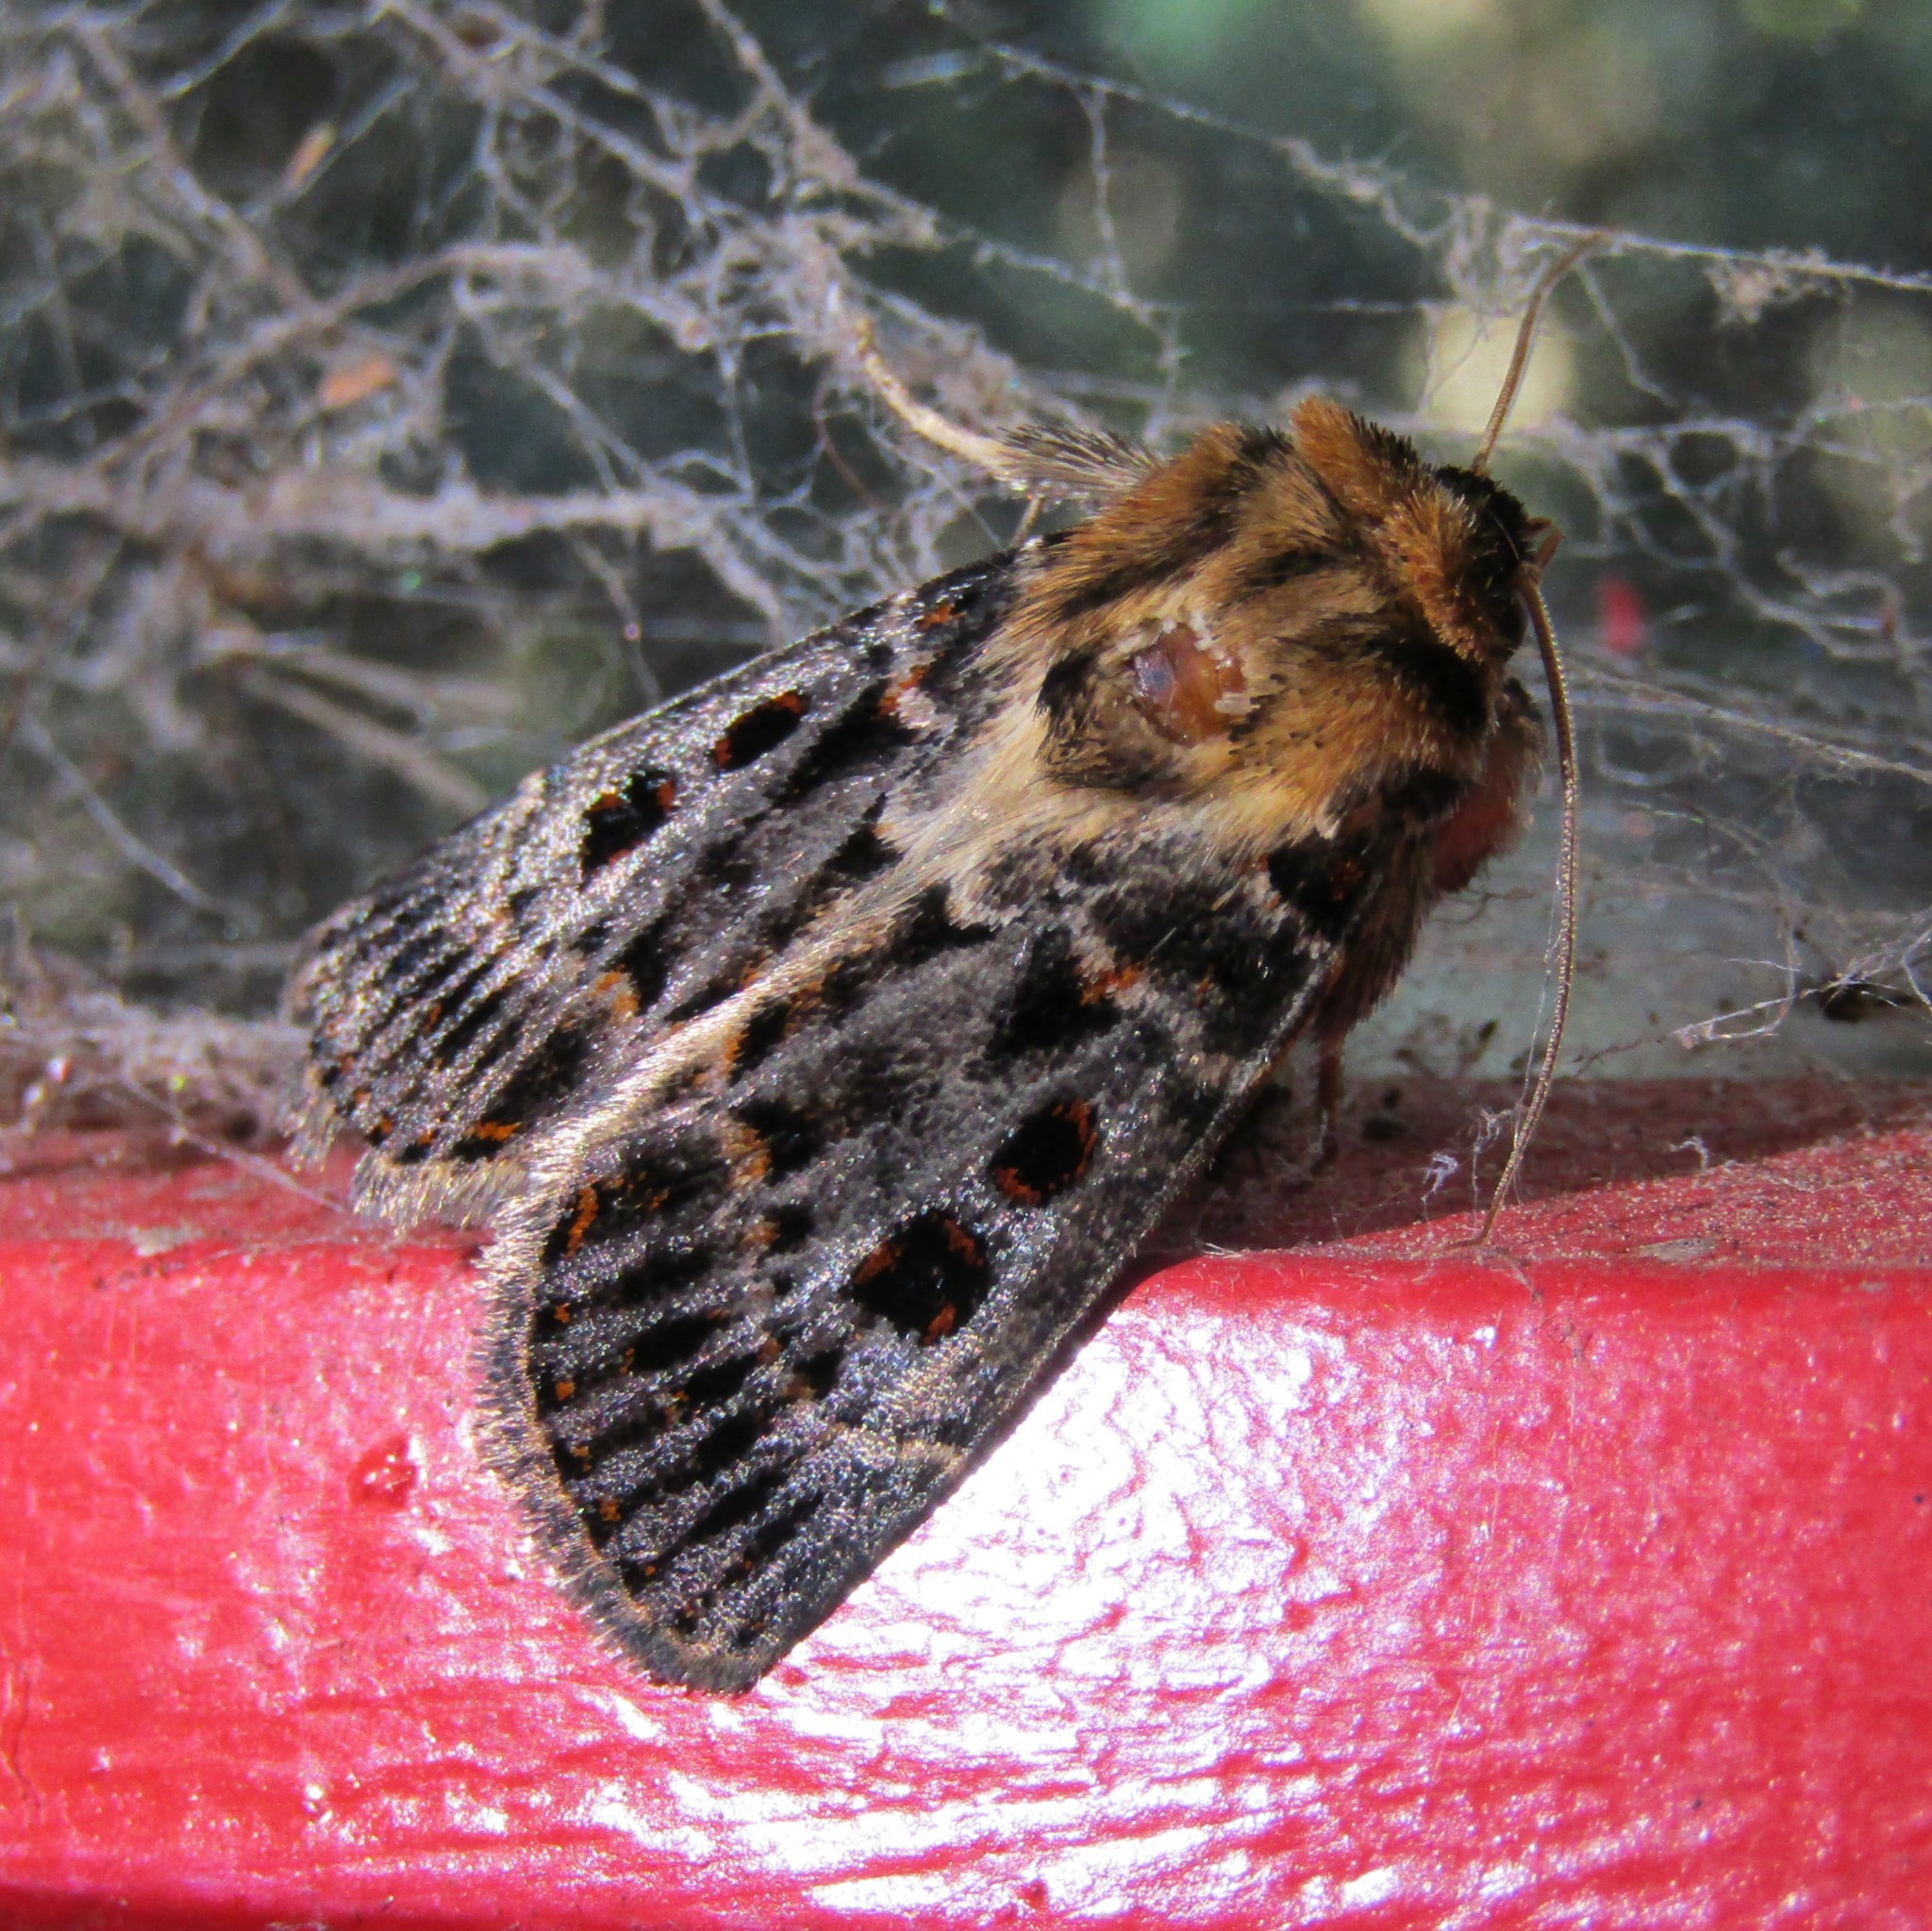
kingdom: Animalia
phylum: Arthropoda
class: Insecta
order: Lepidoptera
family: Noctuidae
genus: Proteuxoa
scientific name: Proteuxoa sanguinipuncta
